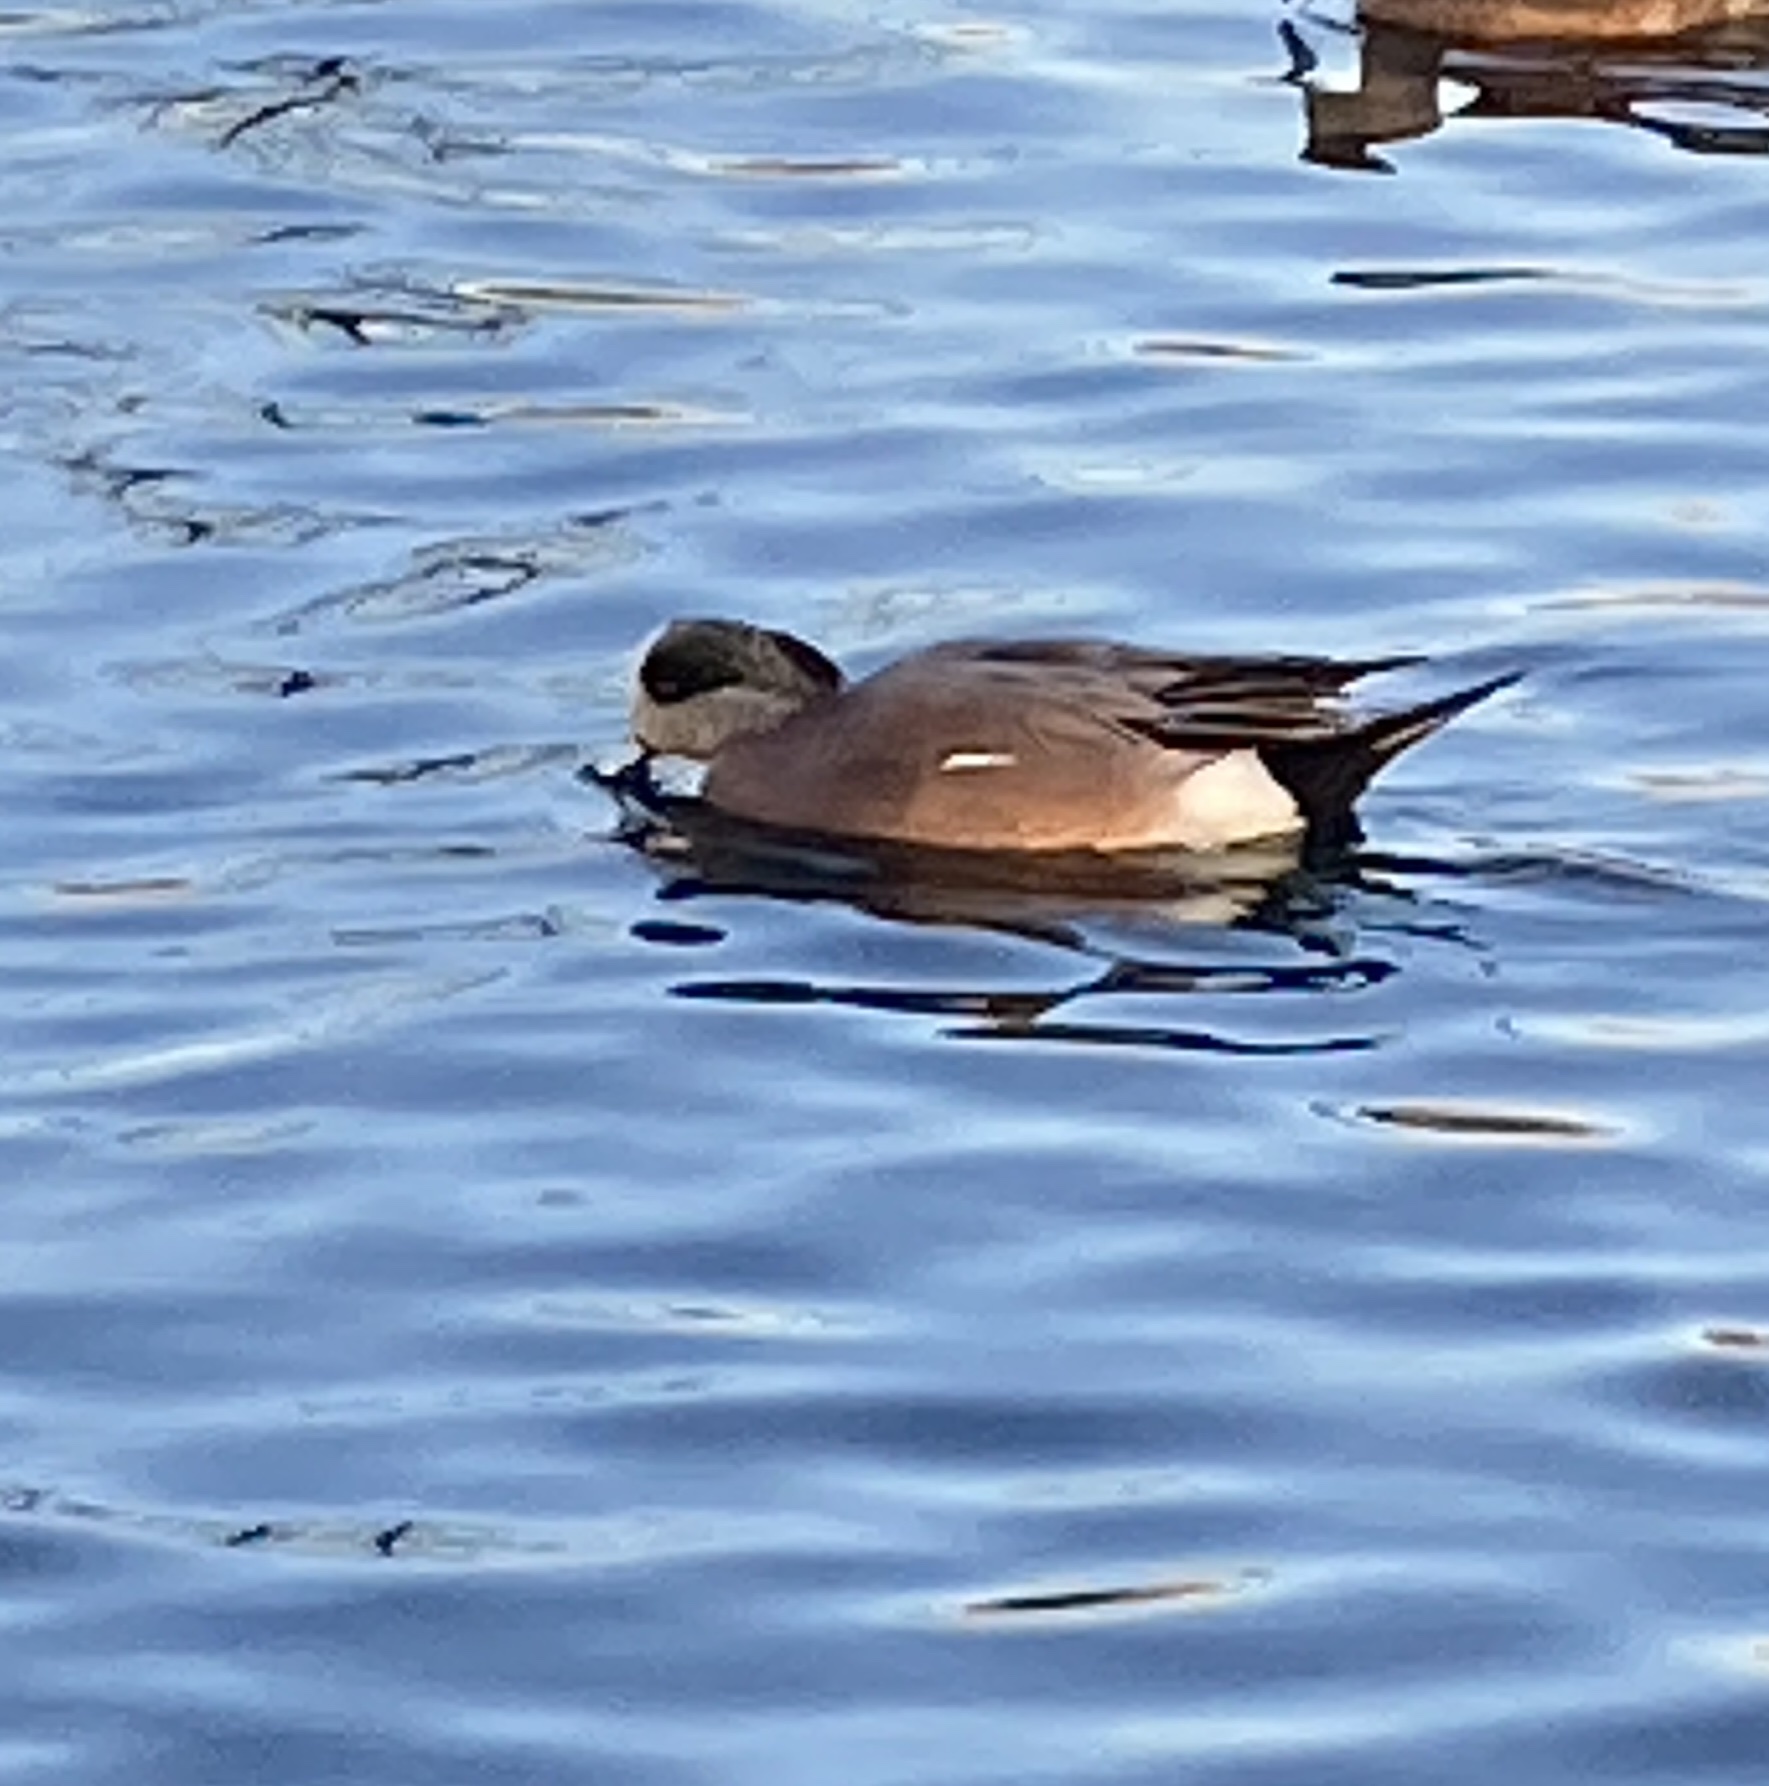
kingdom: Animalia
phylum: Chordata
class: Aves
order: Anseriformes
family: Anatidae
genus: Mareca
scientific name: Mareca americana
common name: American wigeon
